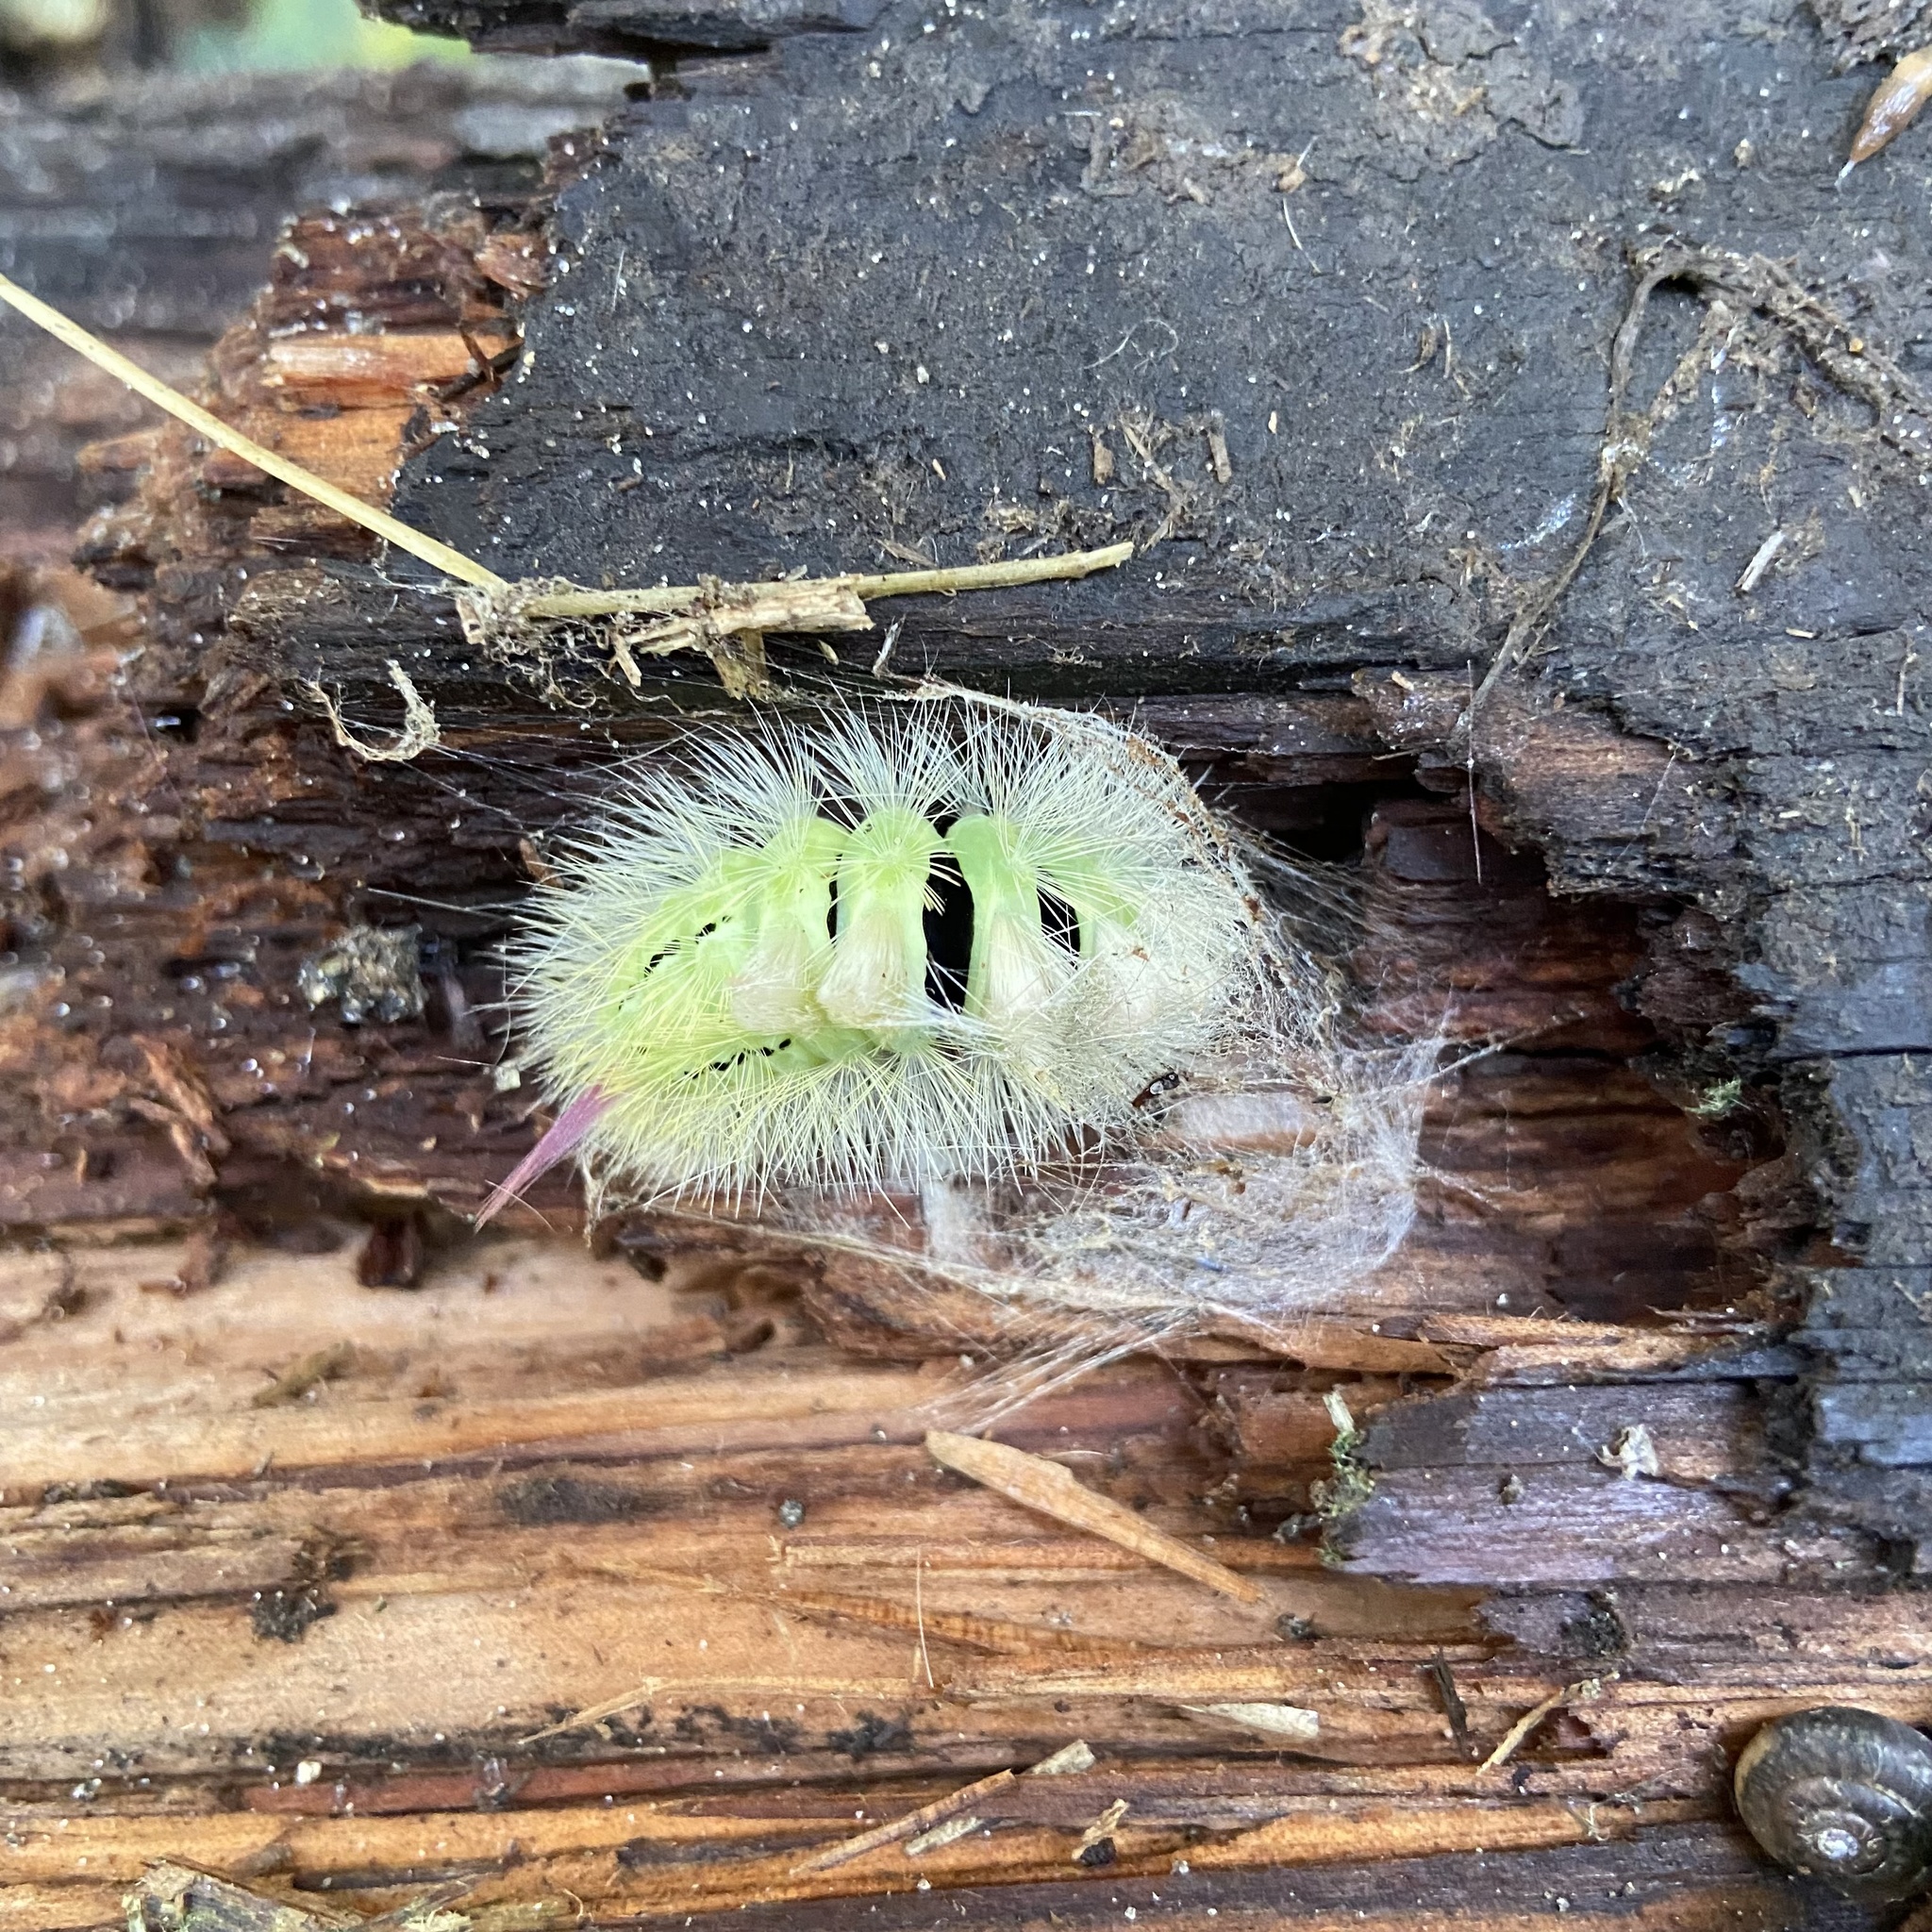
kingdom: Animalia
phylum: Arthropoda
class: Insecta
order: Lepidoptera
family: Erebidae
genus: Calliteara
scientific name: Calliteara pudibunda
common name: Pale tussock
